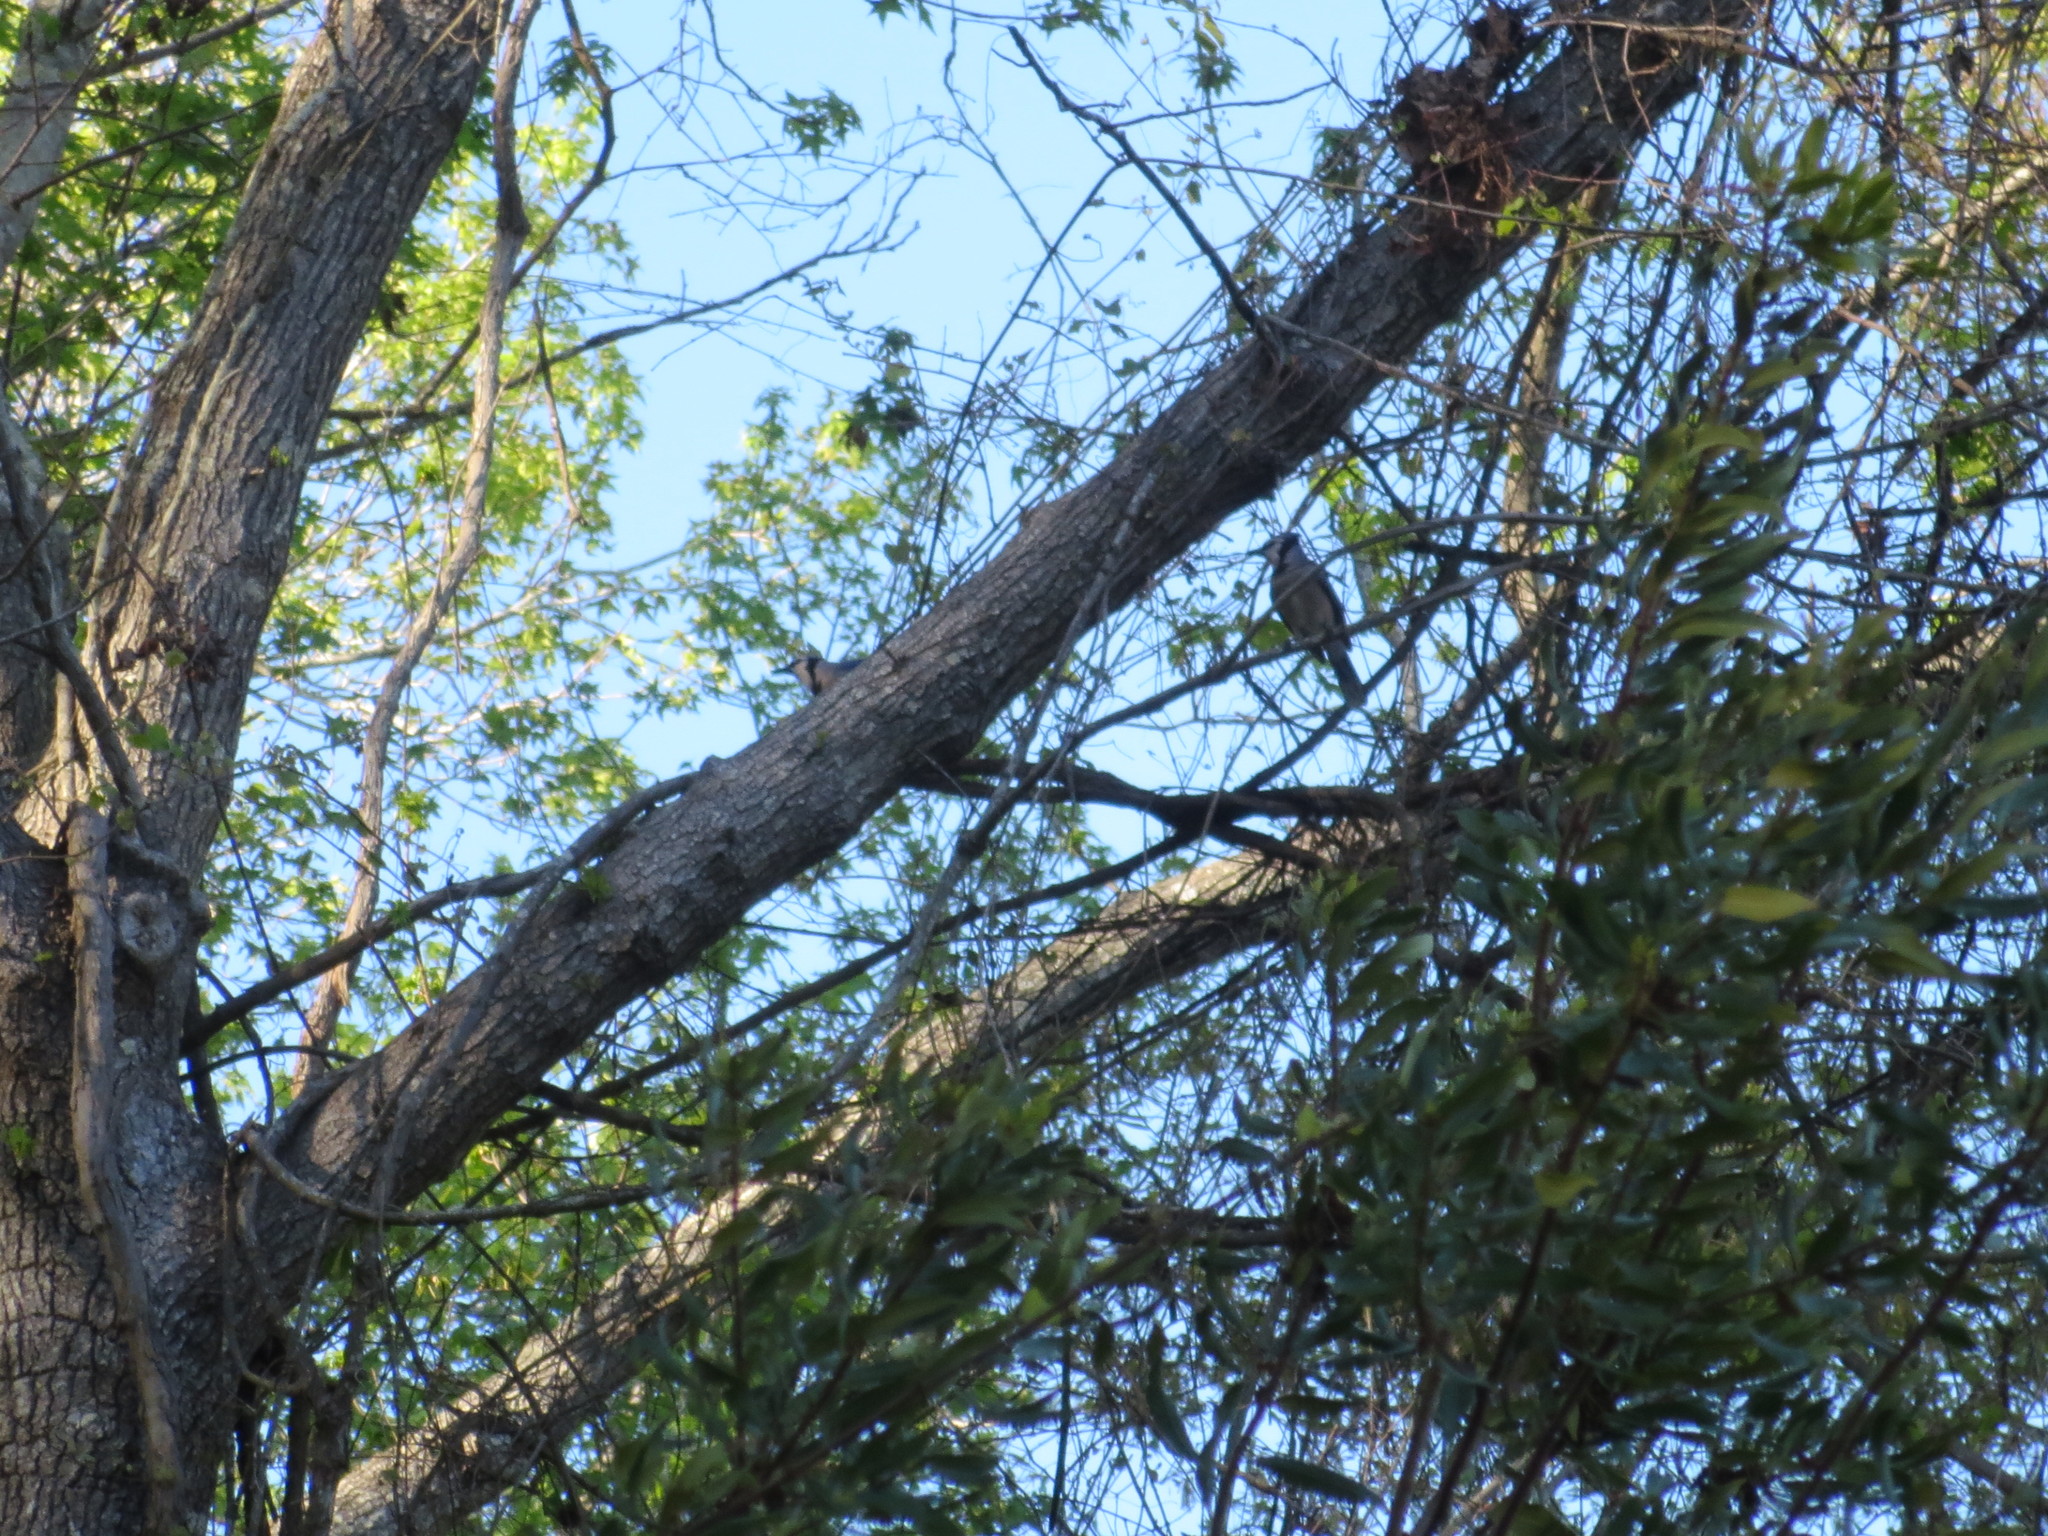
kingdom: Animalia
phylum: Chordata
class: Aves
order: Passeriformes
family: Corvidae
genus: Cyanocitta
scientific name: Cyanocitta cristata
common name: Blue jay
